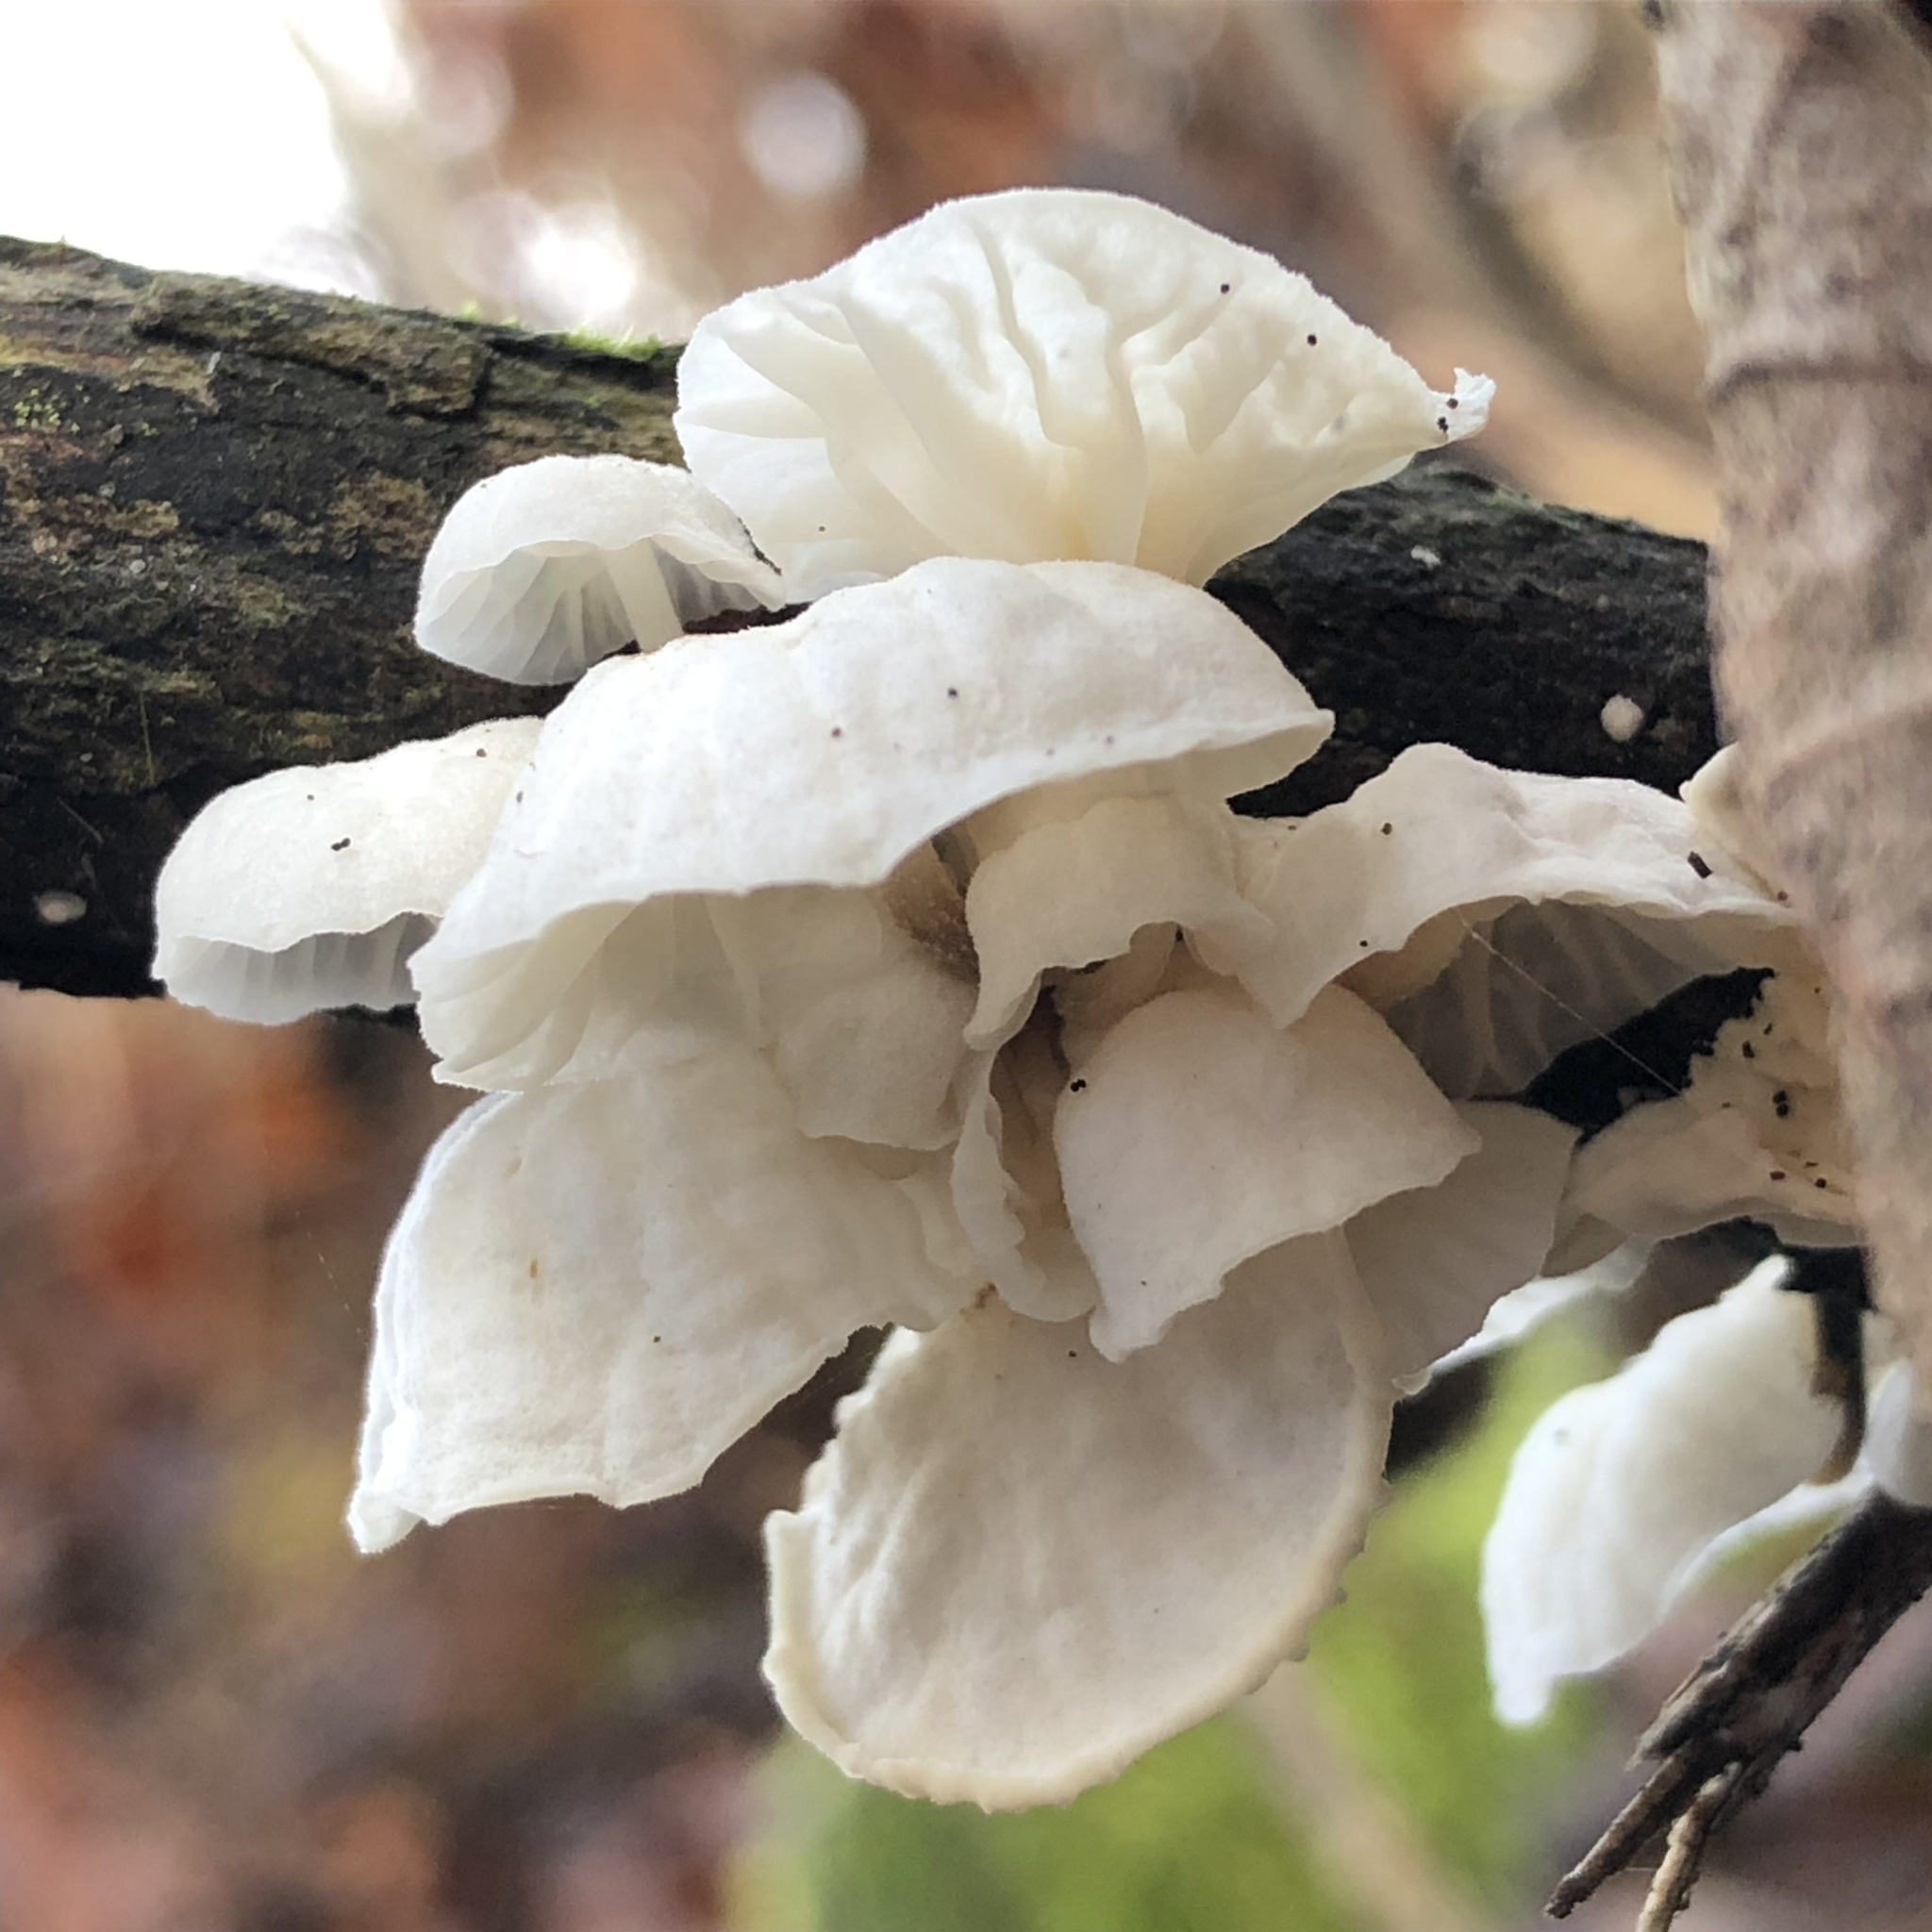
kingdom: Fungi
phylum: Basidiomycota
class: Agaricomycetes
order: Agaricales
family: Omphalotaceae
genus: Marasmiellus
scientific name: Marasmiellus candidus
